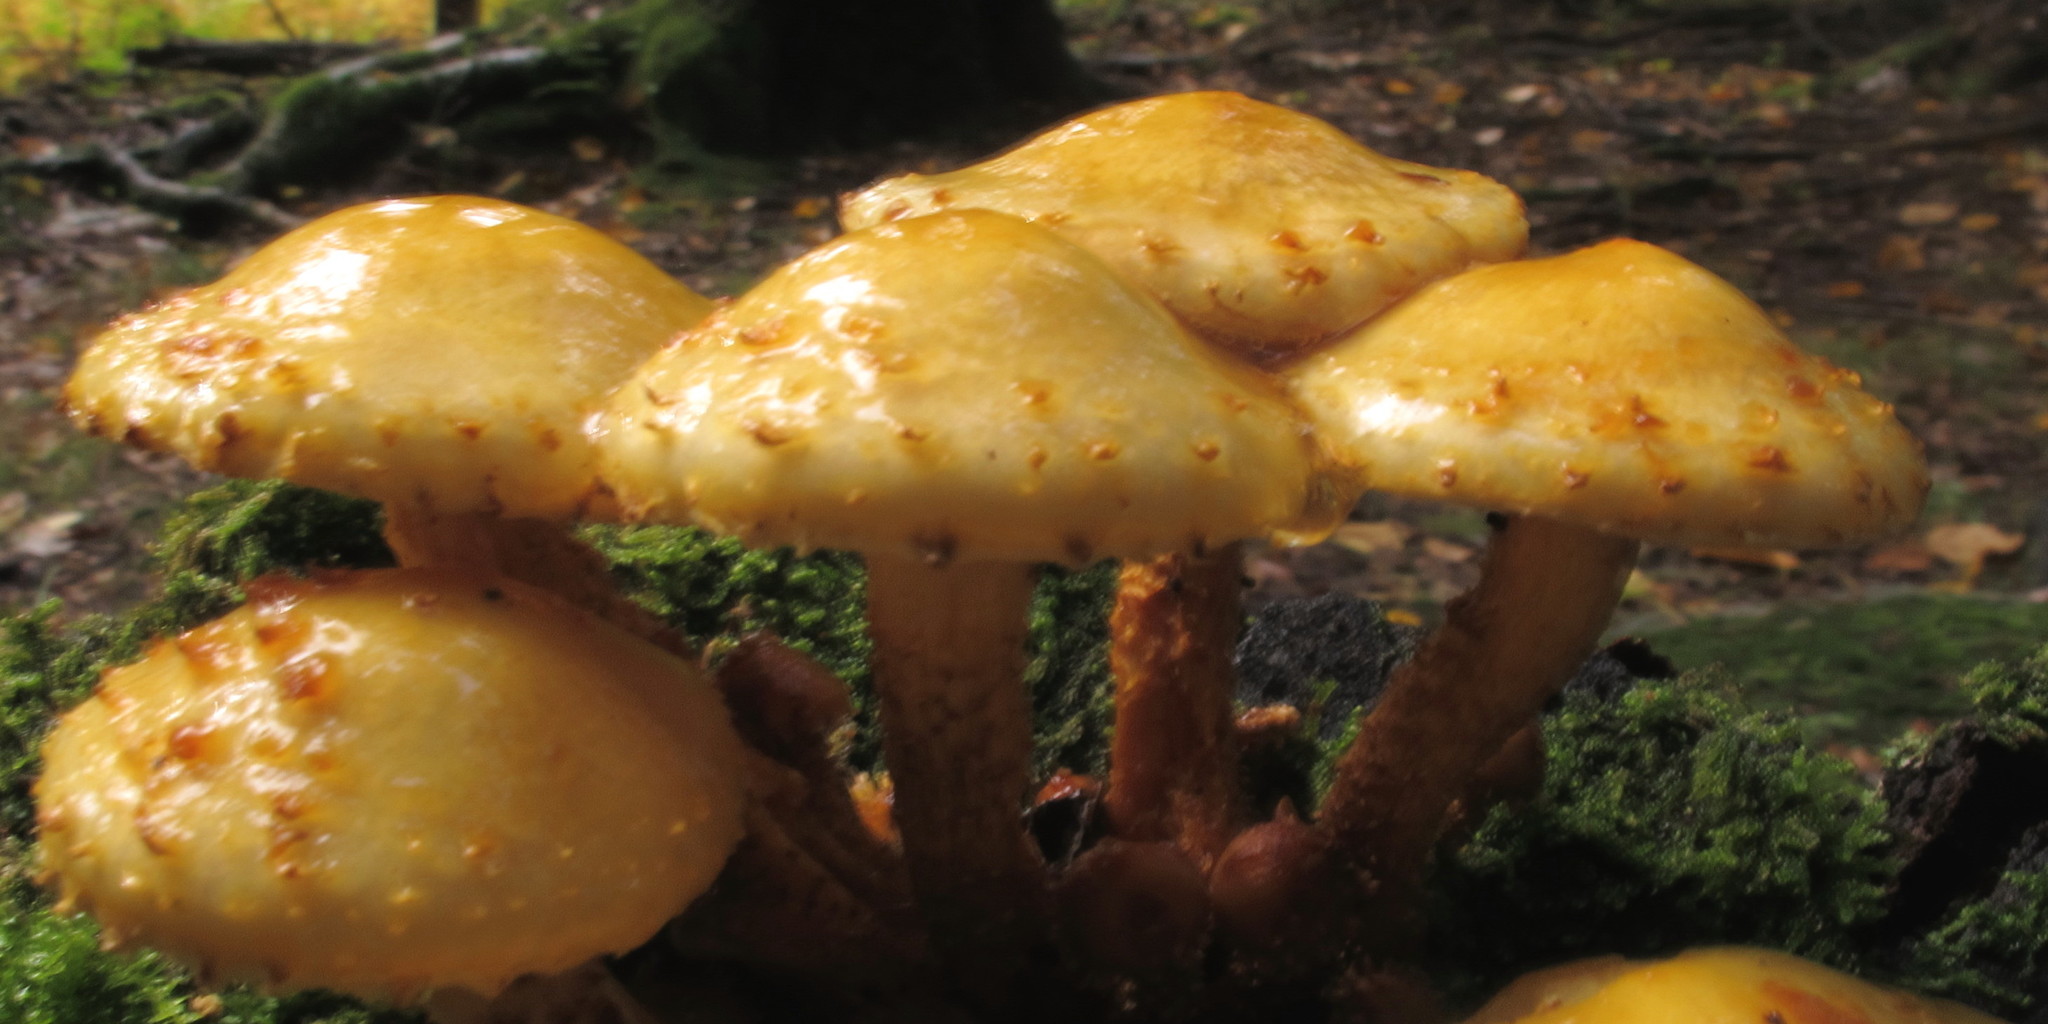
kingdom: Fungi
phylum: Basidiomycota
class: Agaricomycetes
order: Agaricales
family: Strophariaceae
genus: Pholiota
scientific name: Pholiota aurivella
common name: Golden scalycap
